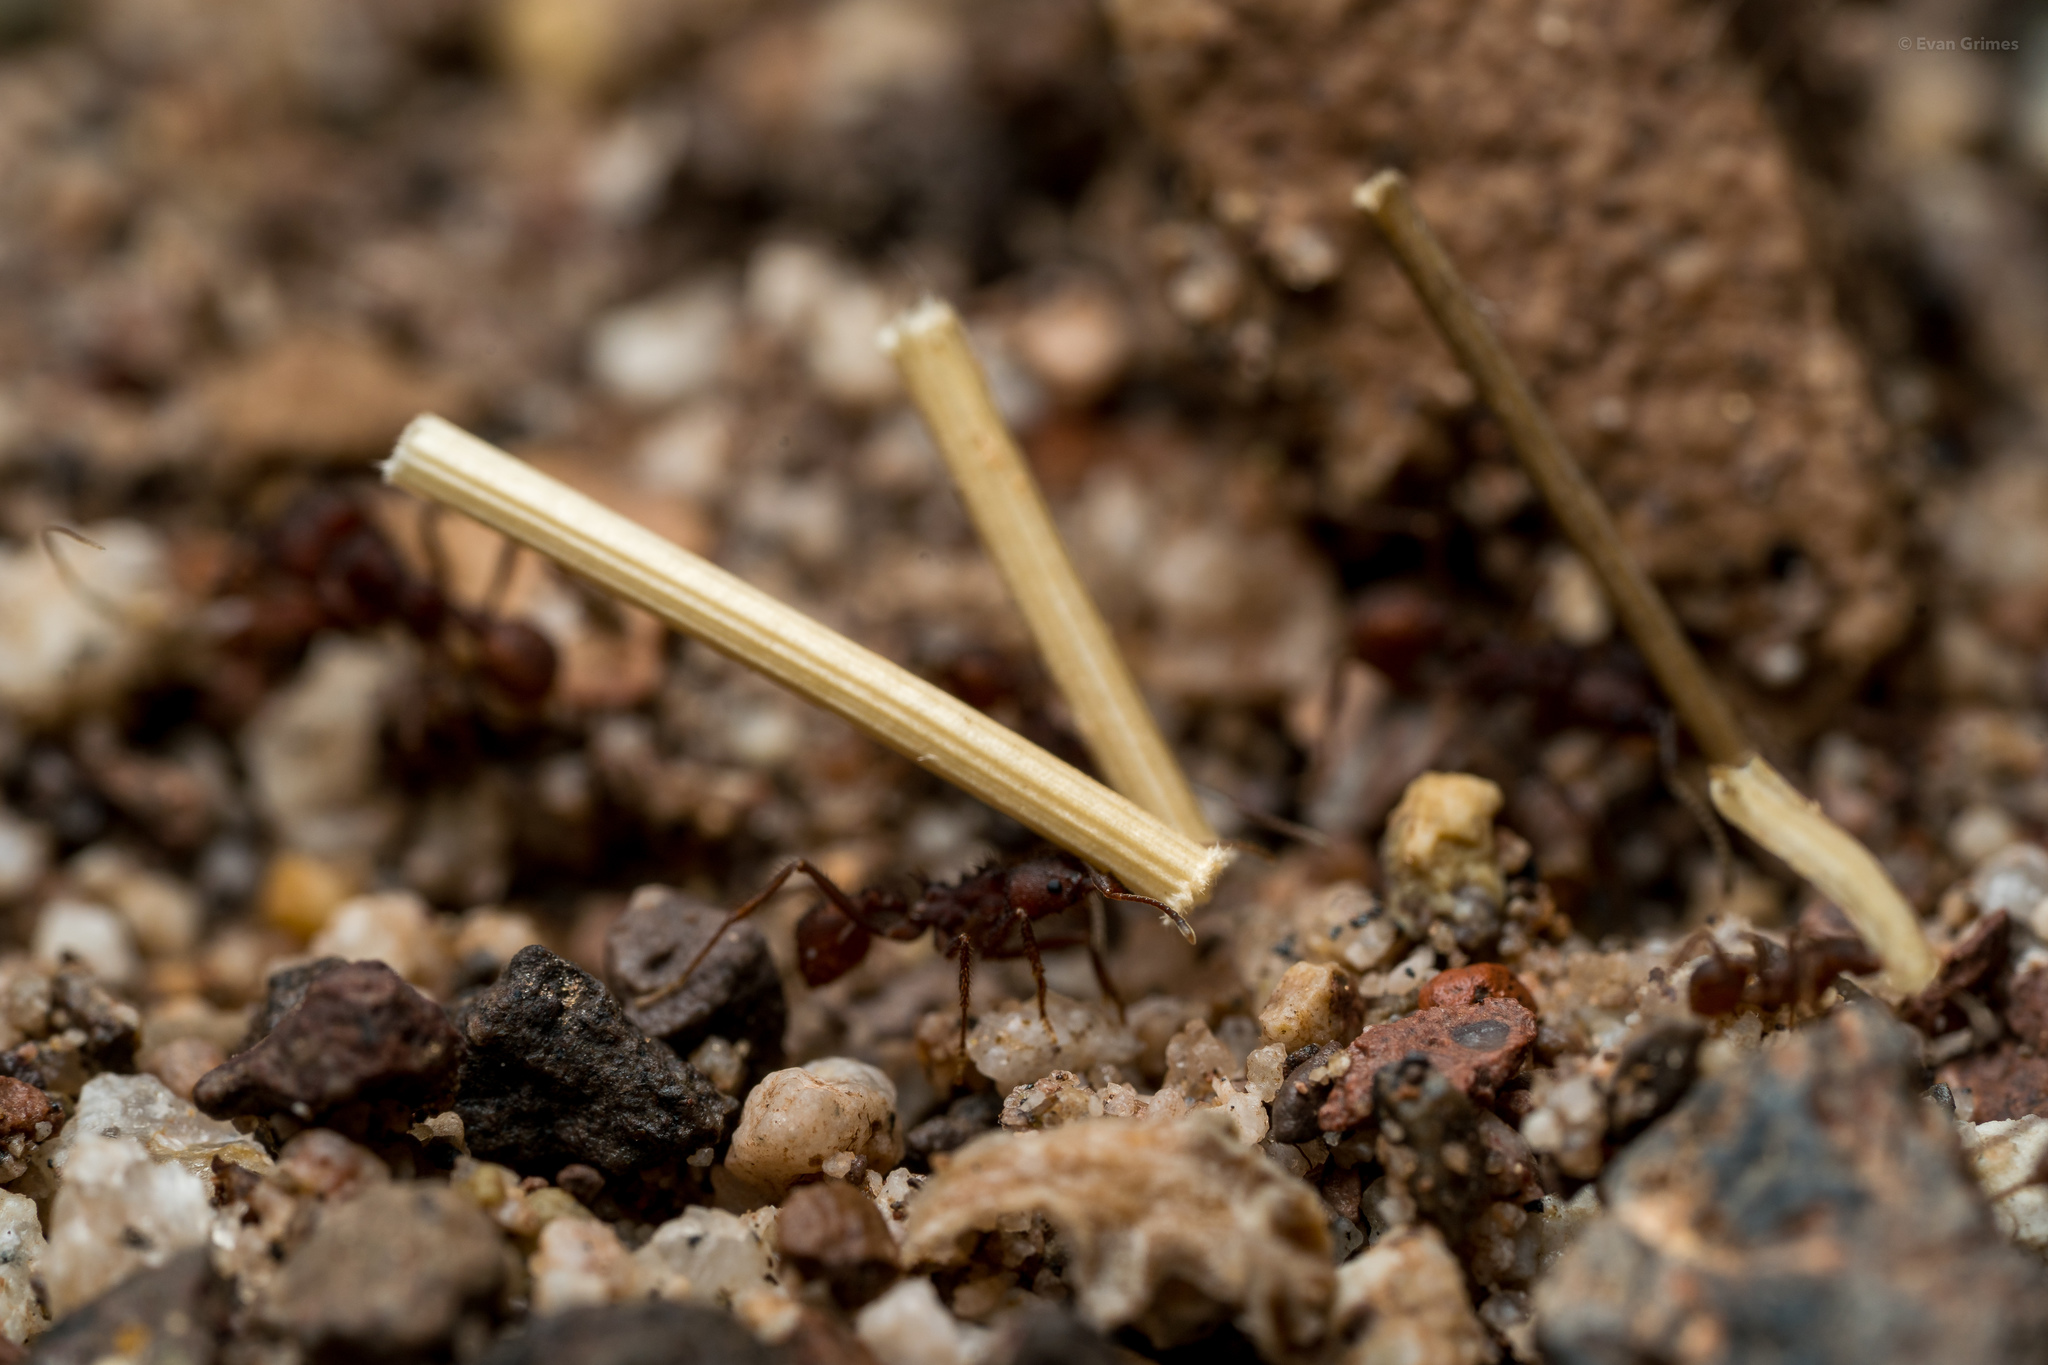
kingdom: Animalia
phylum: Arthropoda
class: Insecta
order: Hymenoptera
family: Formicidae
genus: Acromyrmex
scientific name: Acromyrmex versicolor
